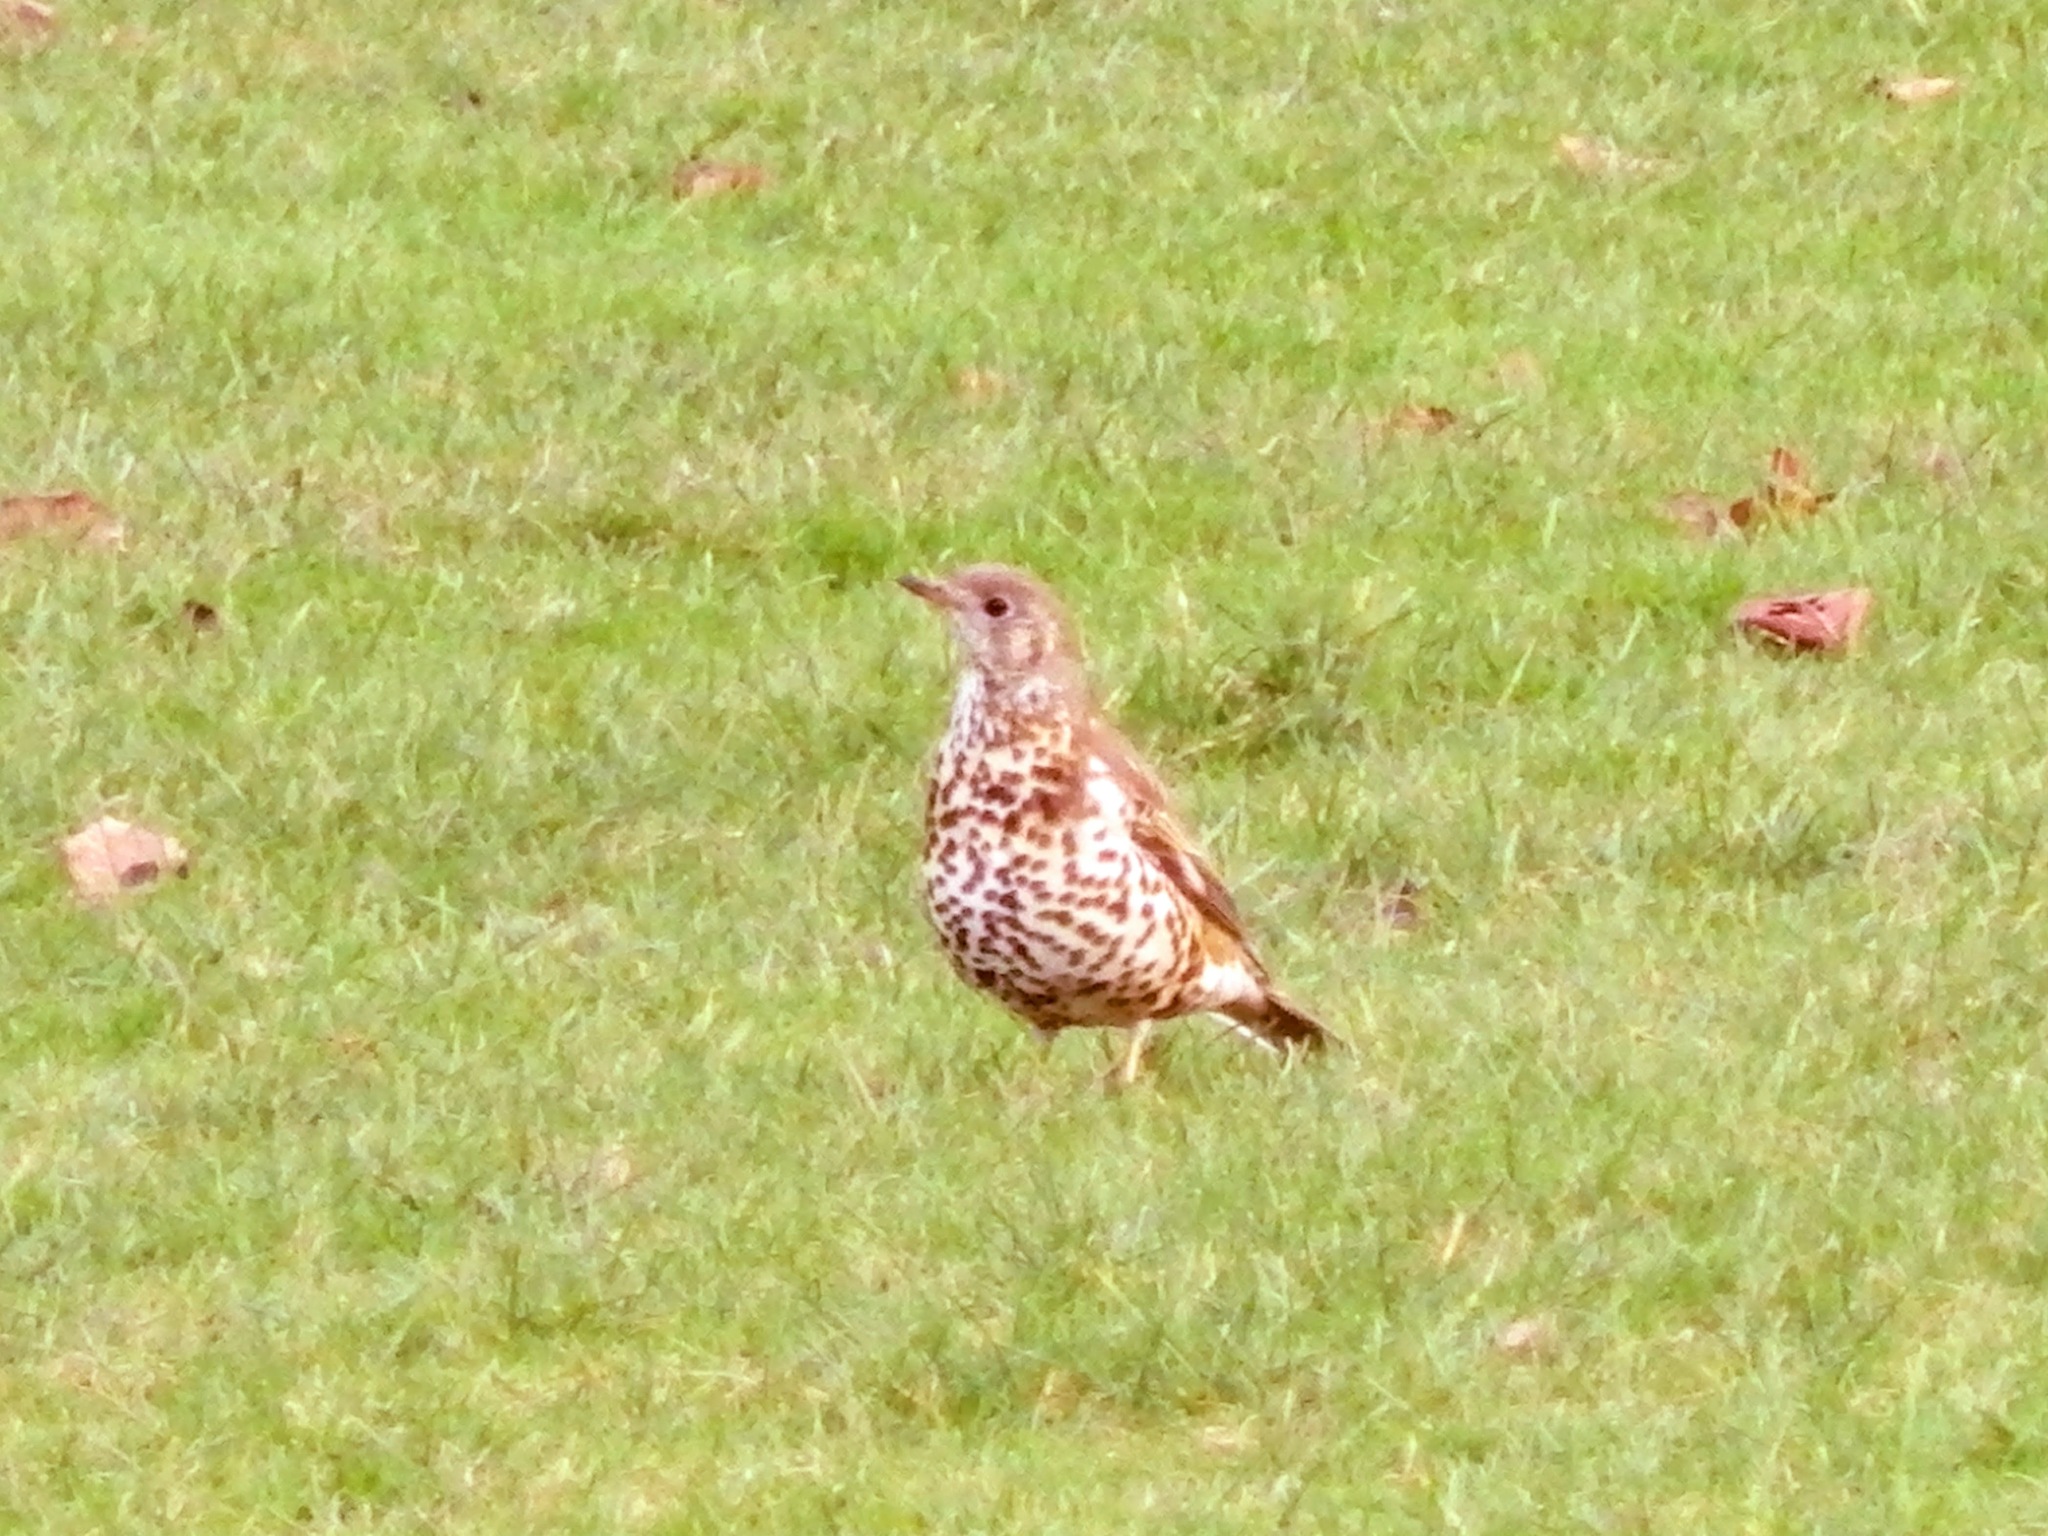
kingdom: Animalia
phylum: Chordata
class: Aves
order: Passeriformes
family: Turdidae
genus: Turdus
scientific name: Turdus viscivorus
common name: Mistle thrush
